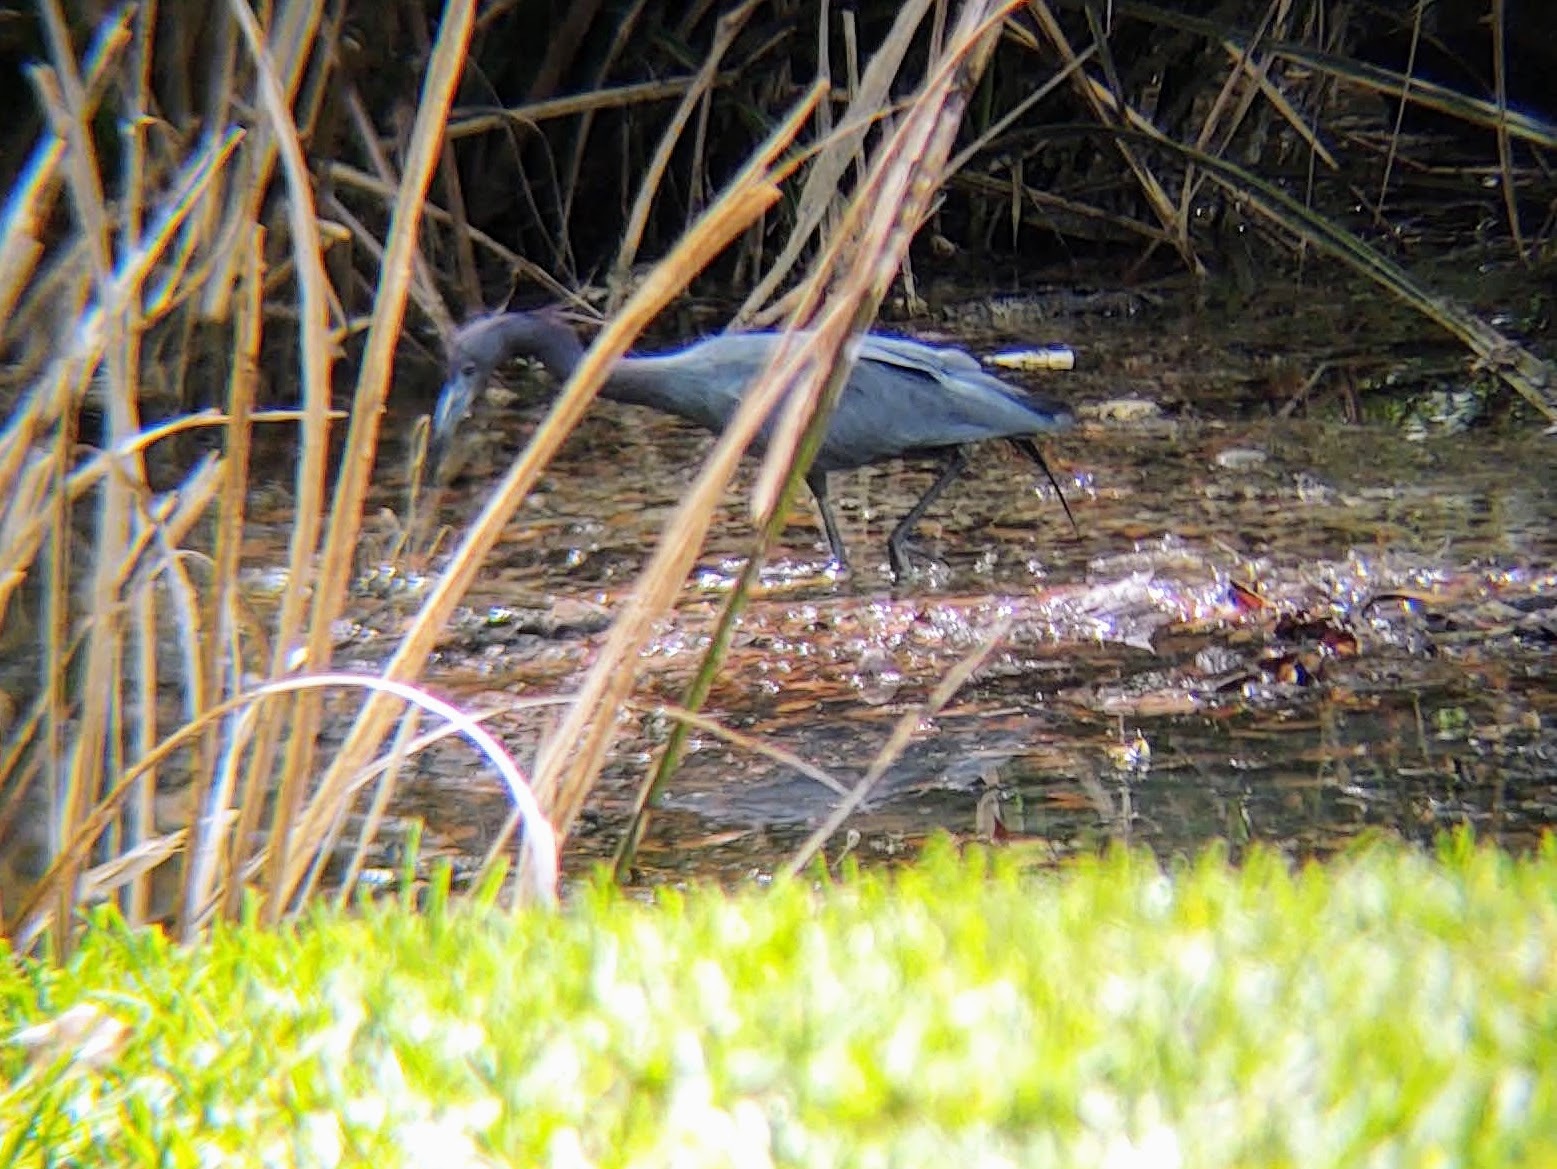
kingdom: Animalia
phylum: Chordata
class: Aves
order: Pelecaniformes
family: Ardeidae
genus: Egretta
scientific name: Egretta caerulea
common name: Little blue heron
